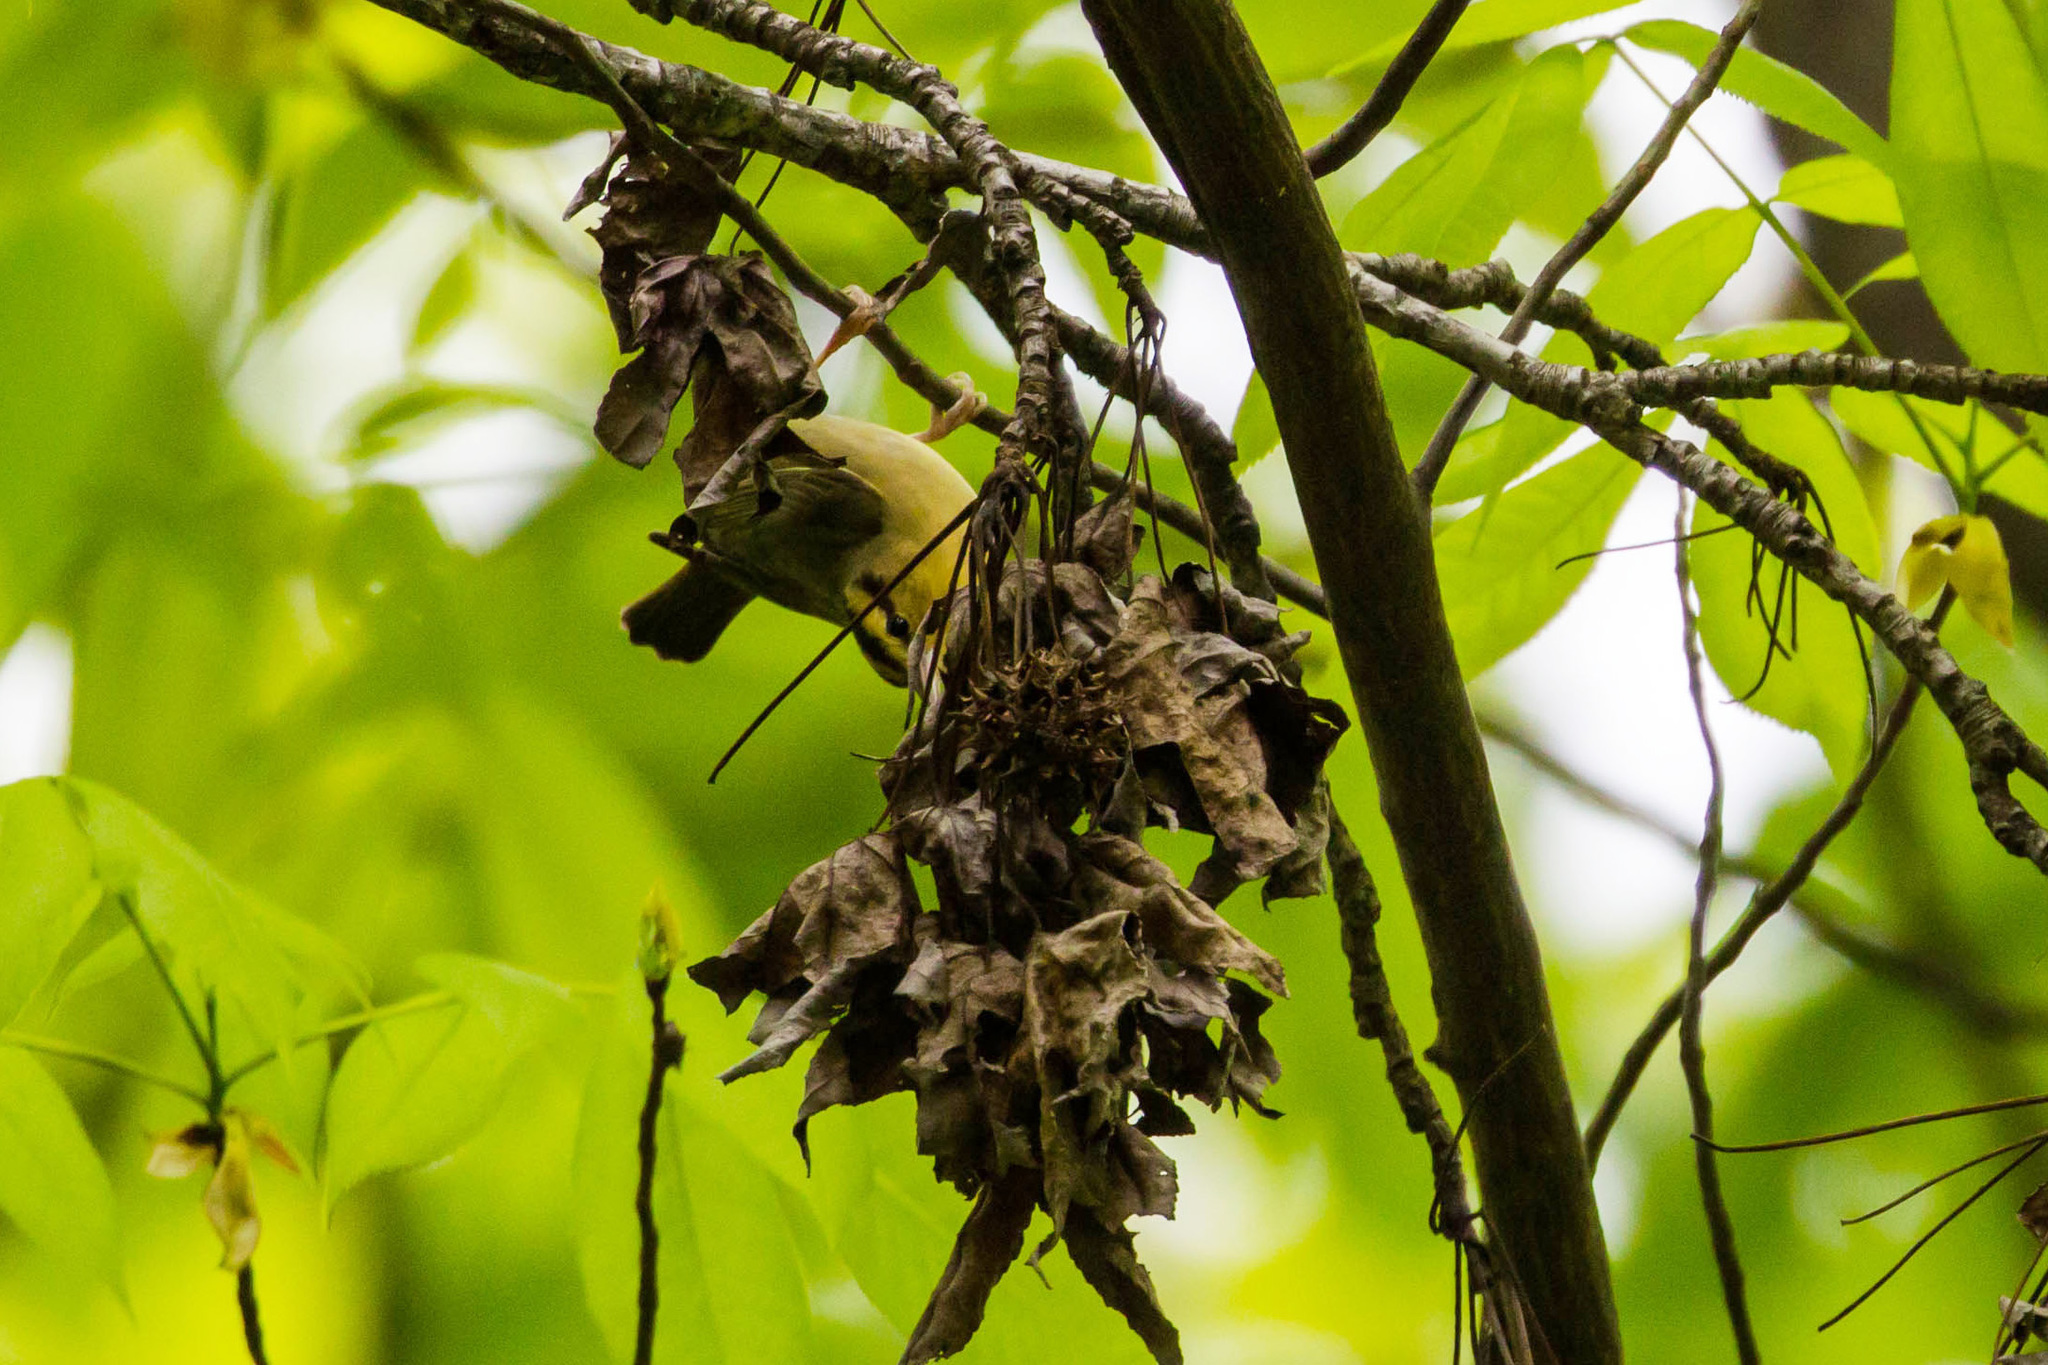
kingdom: Animalia
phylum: Chordata
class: Aves
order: Passeriformes
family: Parulidae
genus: Helmitheros
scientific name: Helmitheros vermivorum
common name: Worm-eating warbler
